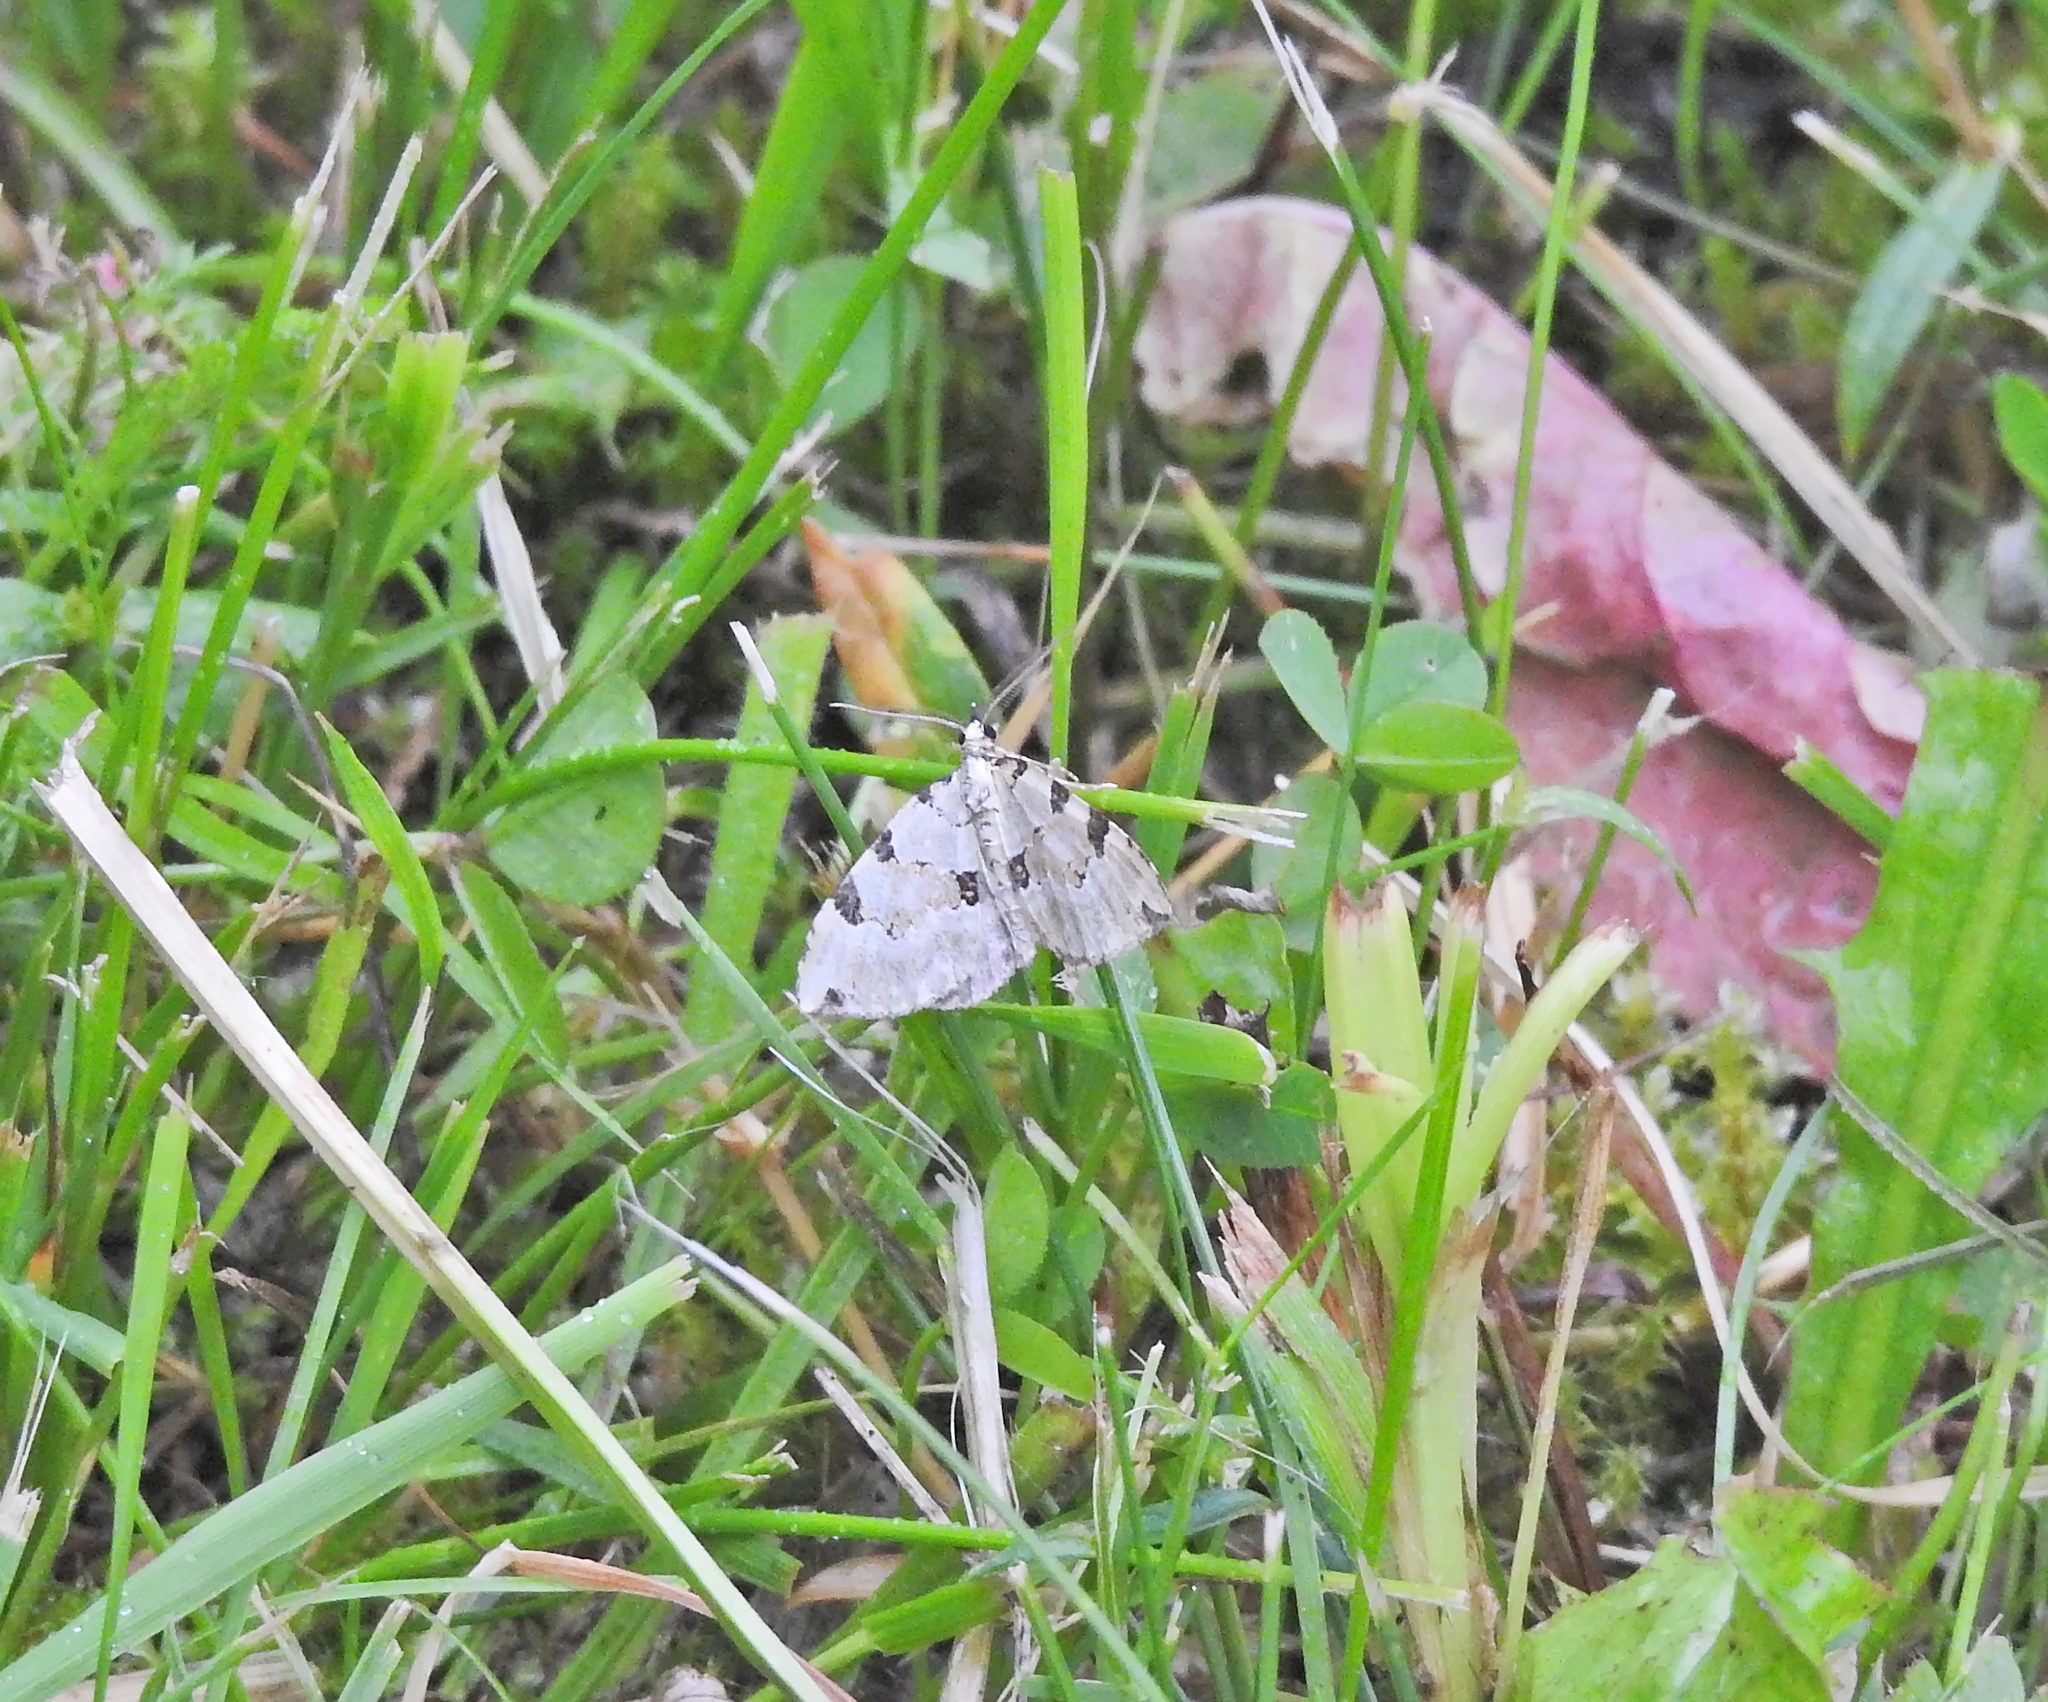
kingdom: Animalia
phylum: Arthropoda
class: Insecta
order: Lepidoptera
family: Geometridae
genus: Colostygia
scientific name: Colostygia pectinataria
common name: Green carpet
